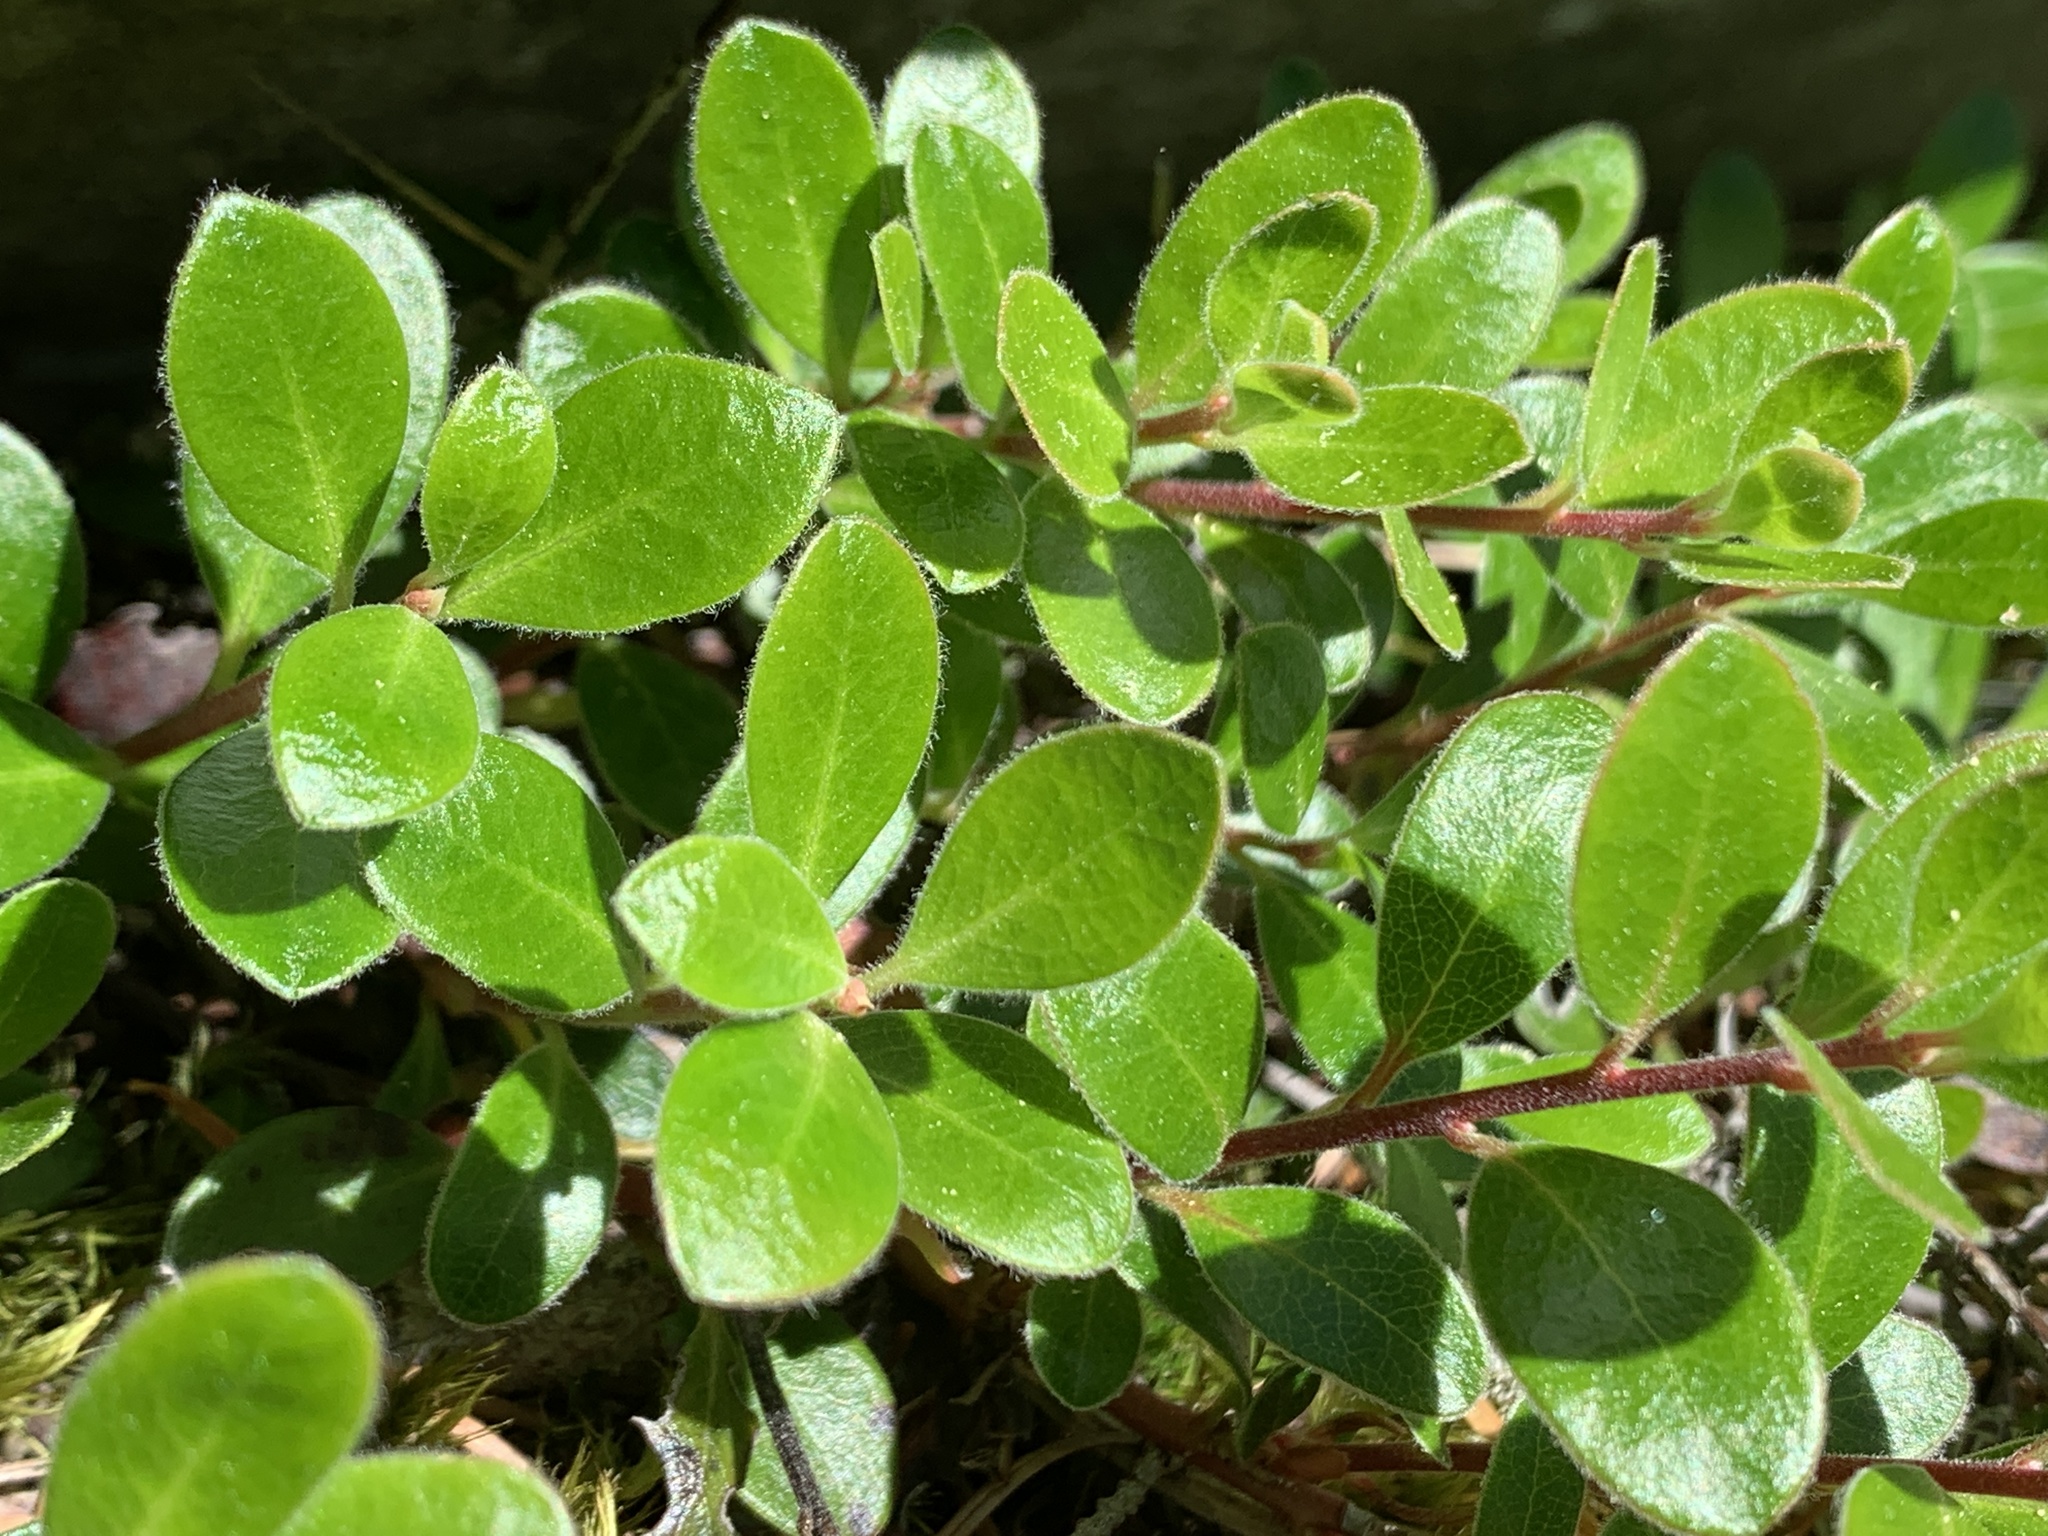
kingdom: Plantae
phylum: Tracheophyta
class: Magnoliopsida
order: Ericales
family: Ericaceae
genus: Arctostaphylos
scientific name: Arctostaphylos uva-ursi
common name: Bearberry
